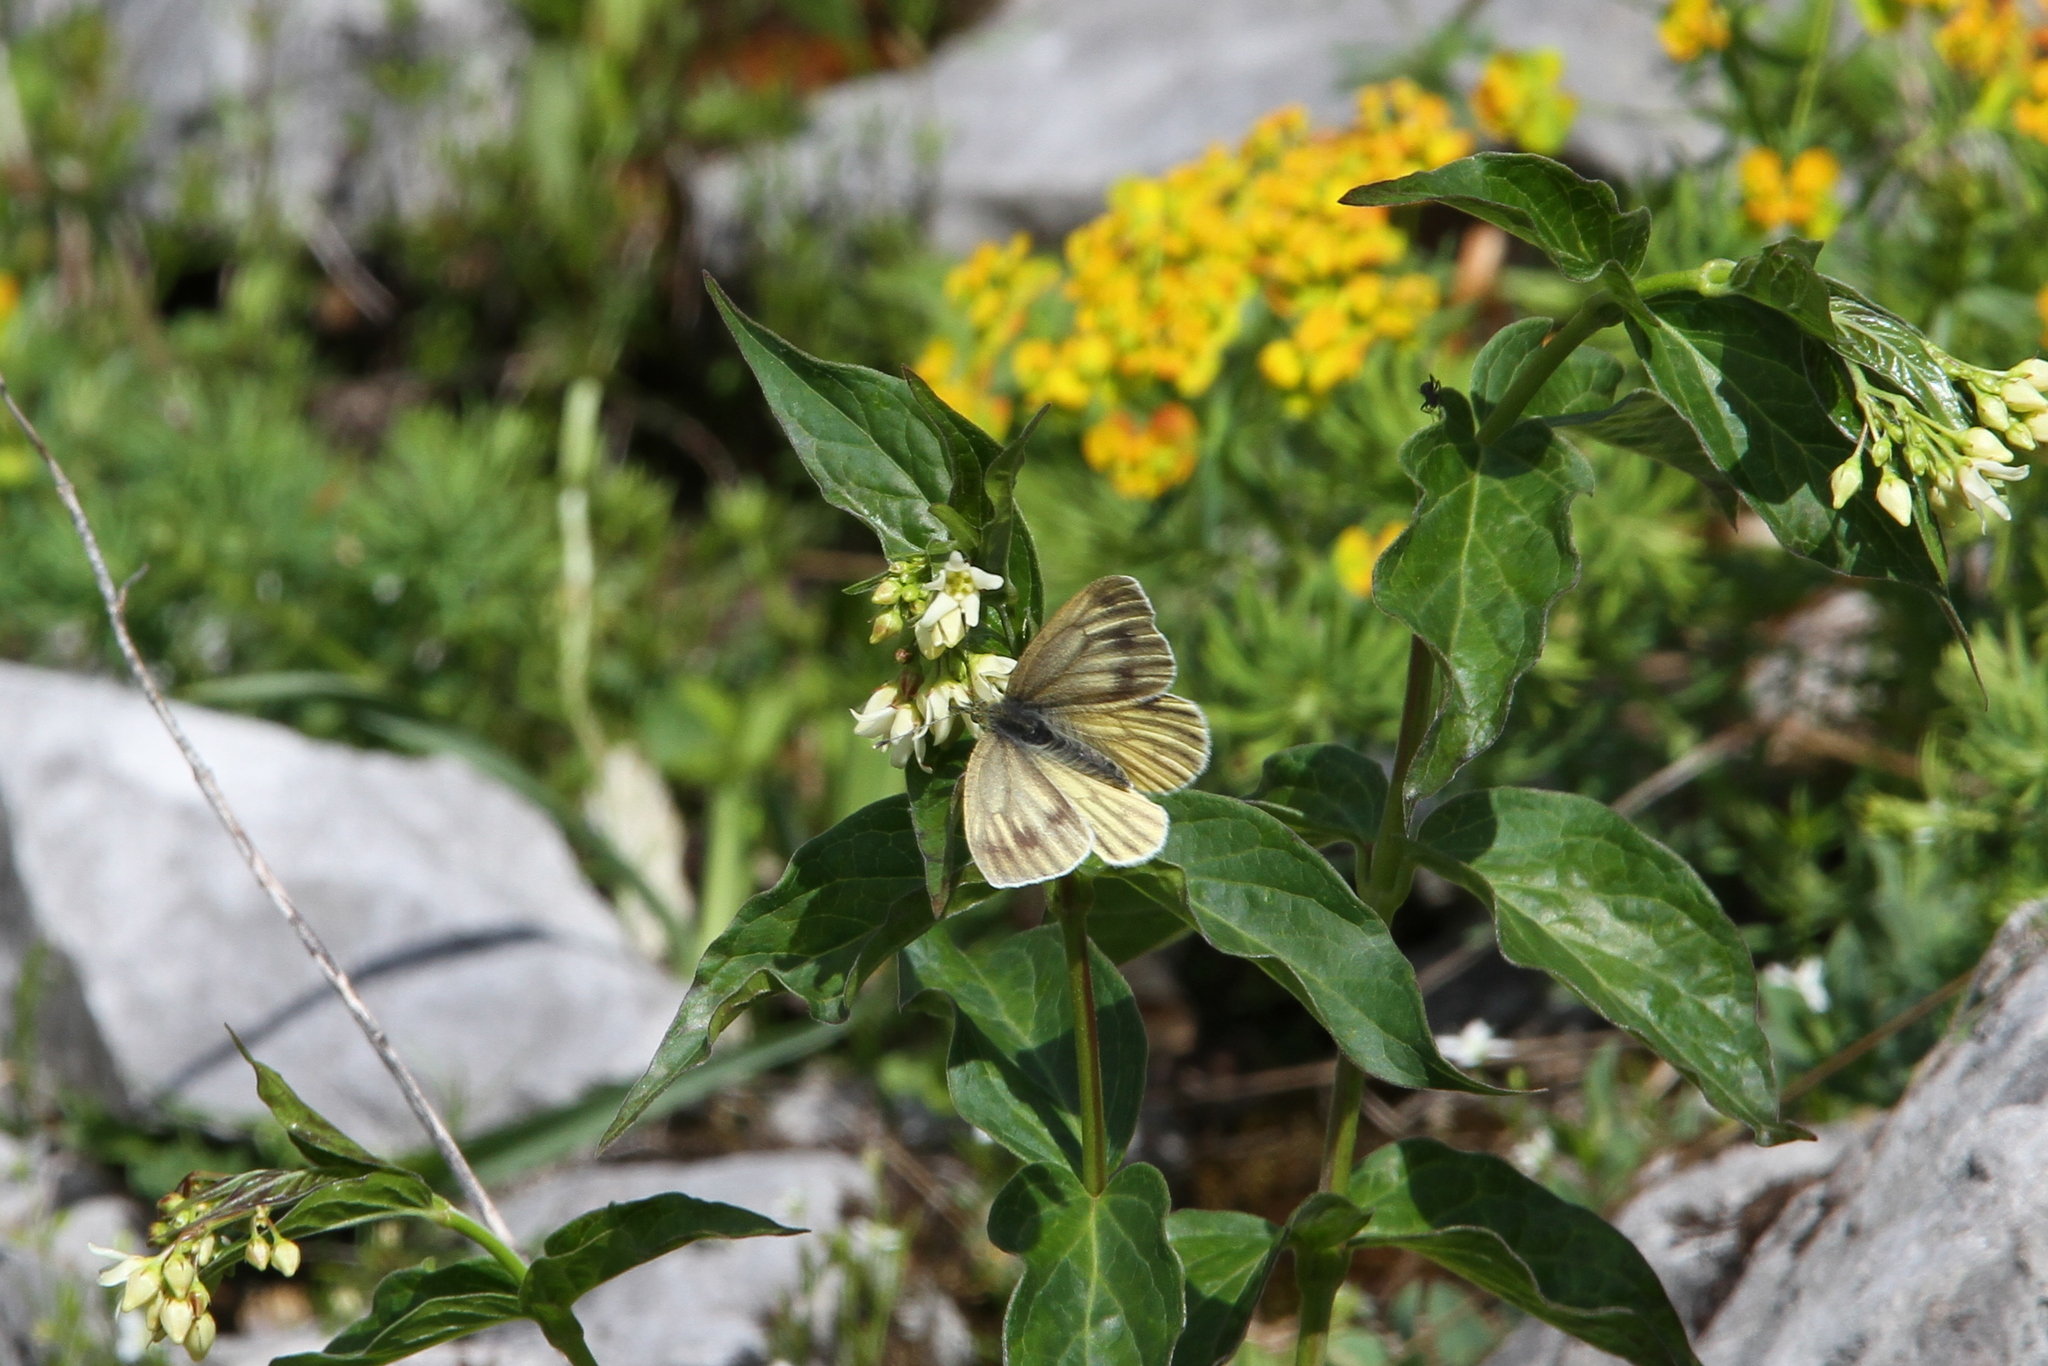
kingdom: Animalia
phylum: Arthropoda
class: Insecta
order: Lepidoptera
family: Pieridae
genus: Pieris
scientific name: Pieris bryoniae
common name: Mountain green-veined white
